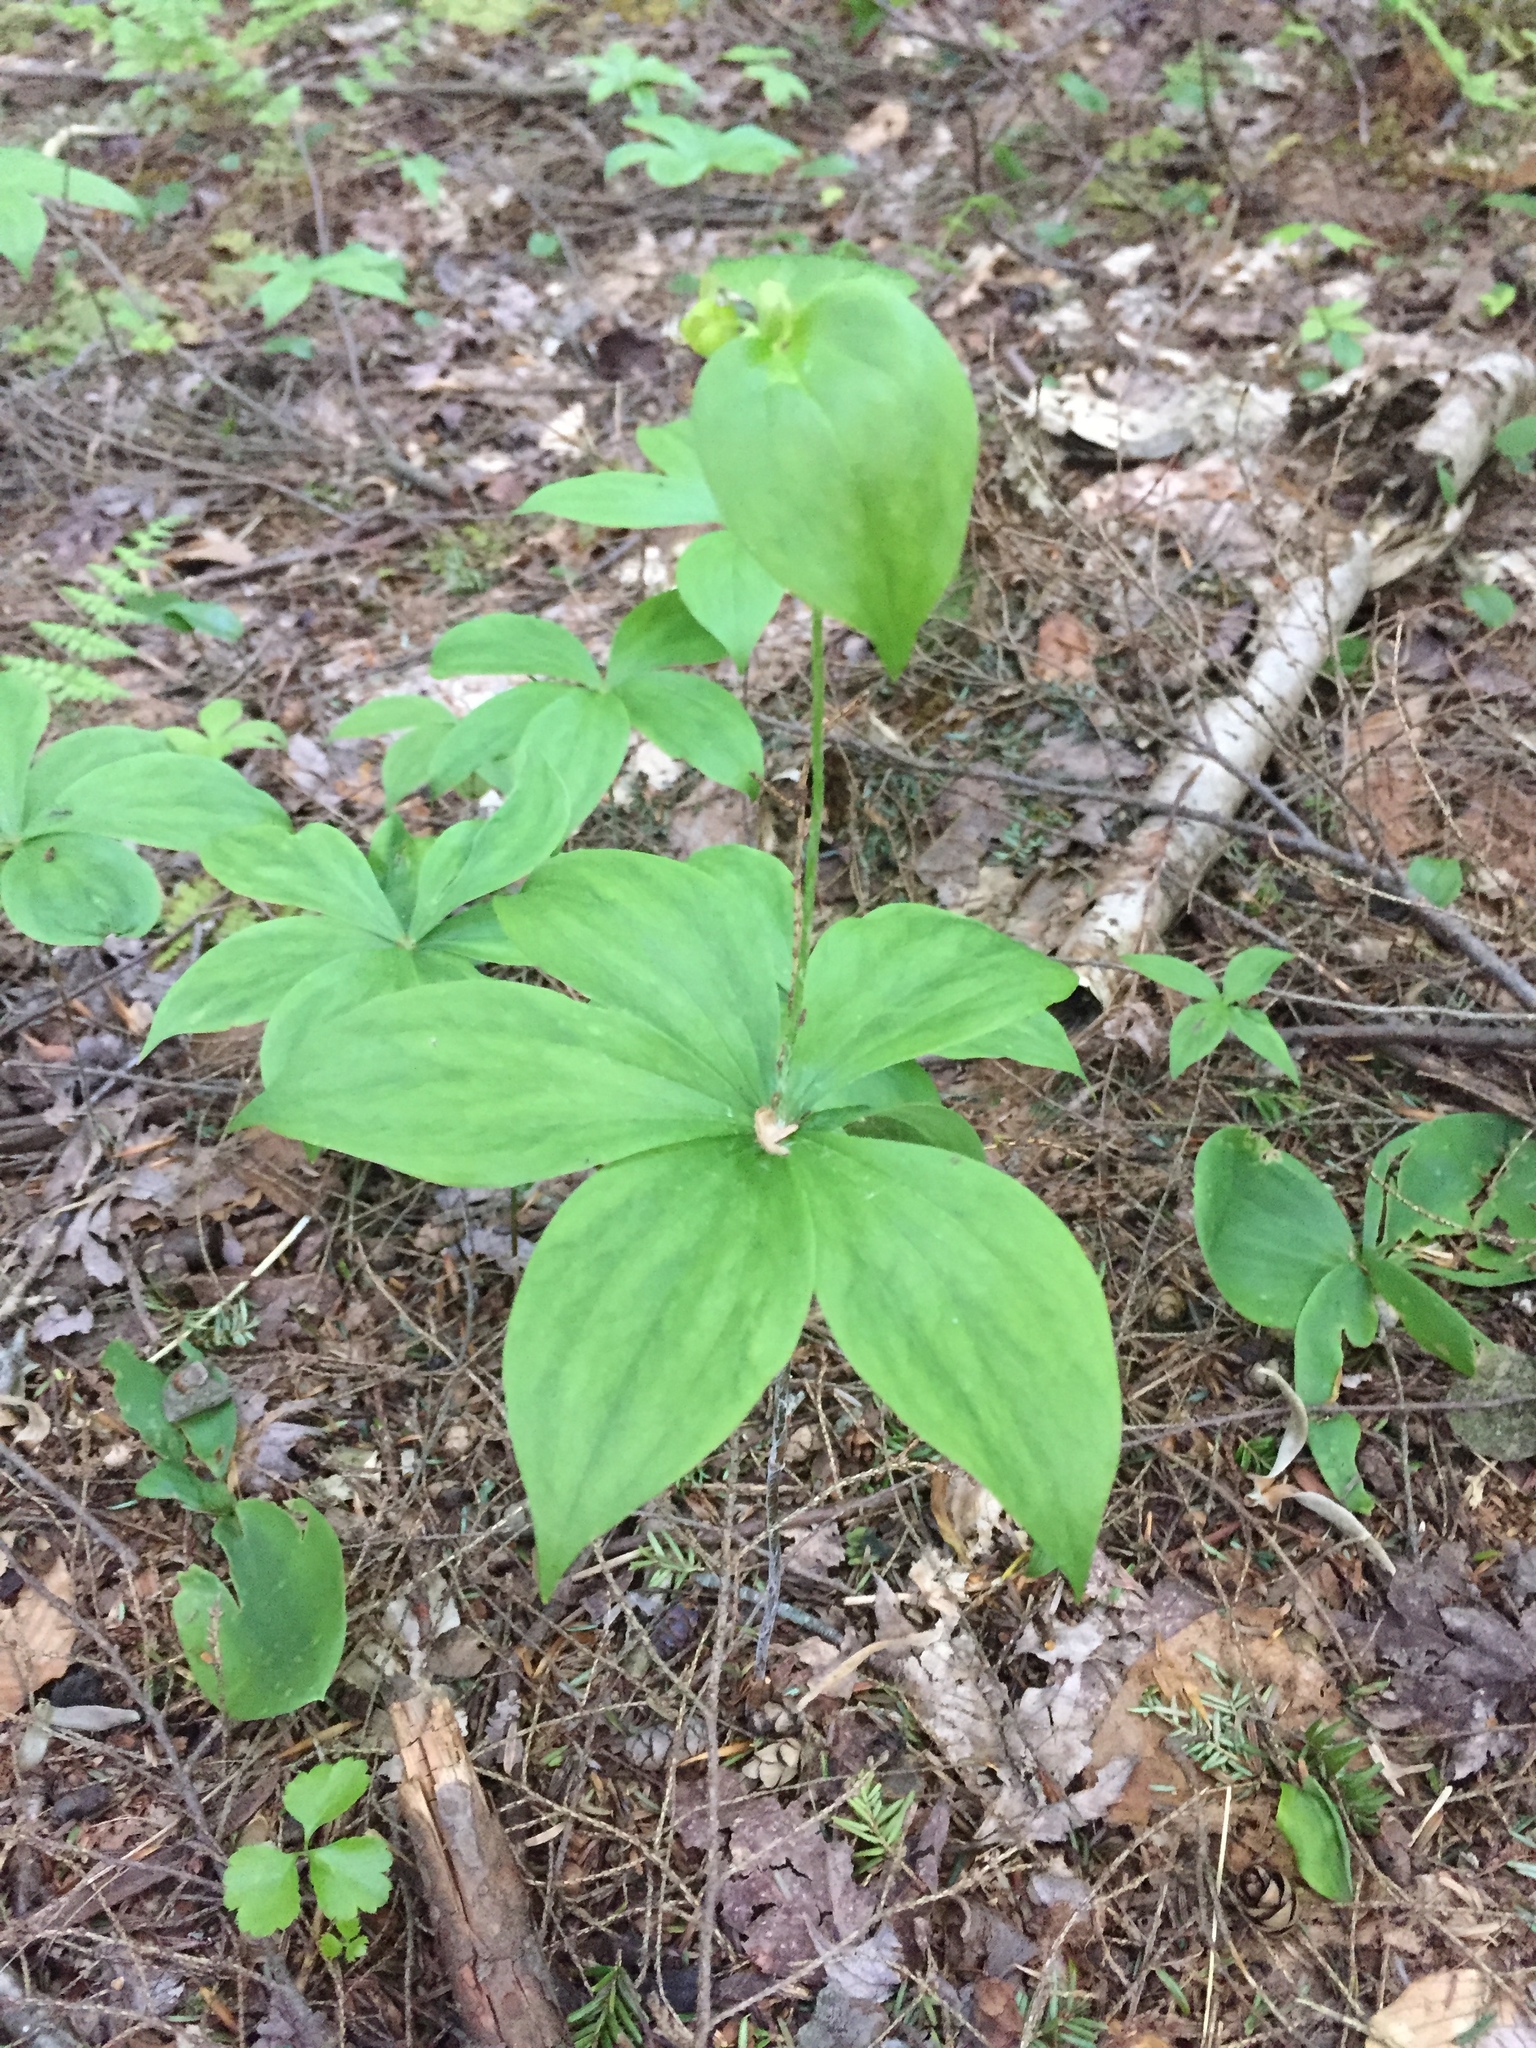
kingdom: Plantae
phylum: Tracheophyta
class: Liliopsida
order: Liliales
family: Liliaceae
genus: Medeola
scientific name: Medeola virginiana
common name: Indian cucumber-root
